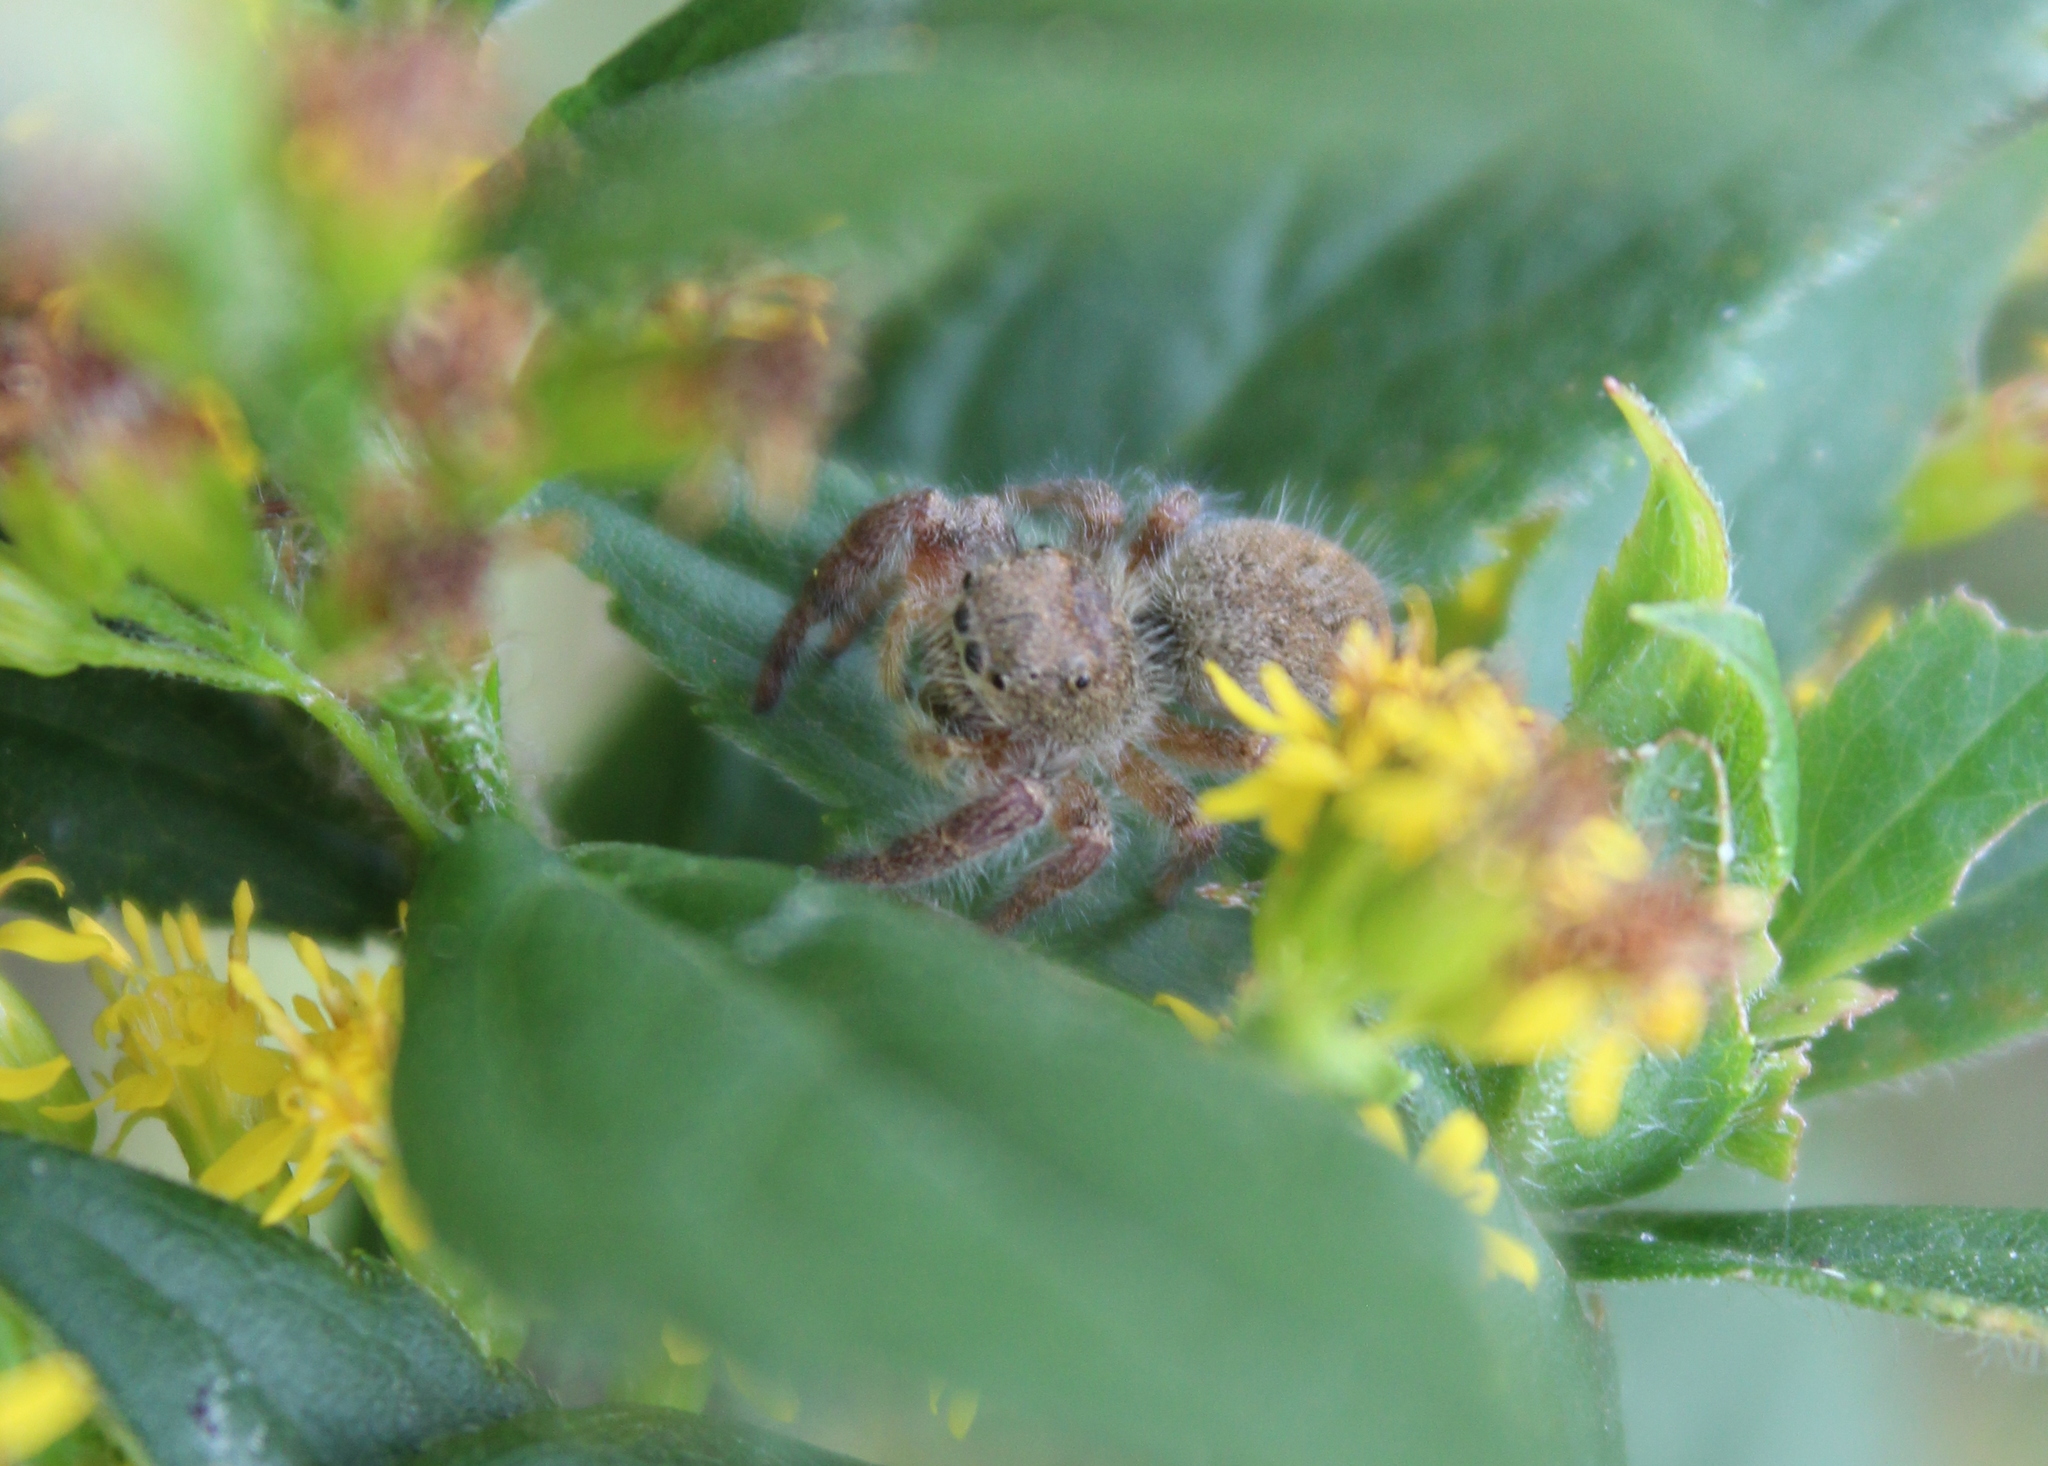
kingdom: Animalia
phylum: Arthropoda
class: Arachnida
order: Araneae
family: Salticidae
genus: Phidippus
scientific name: Phidippus princeps
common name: Grayish jumping spider
